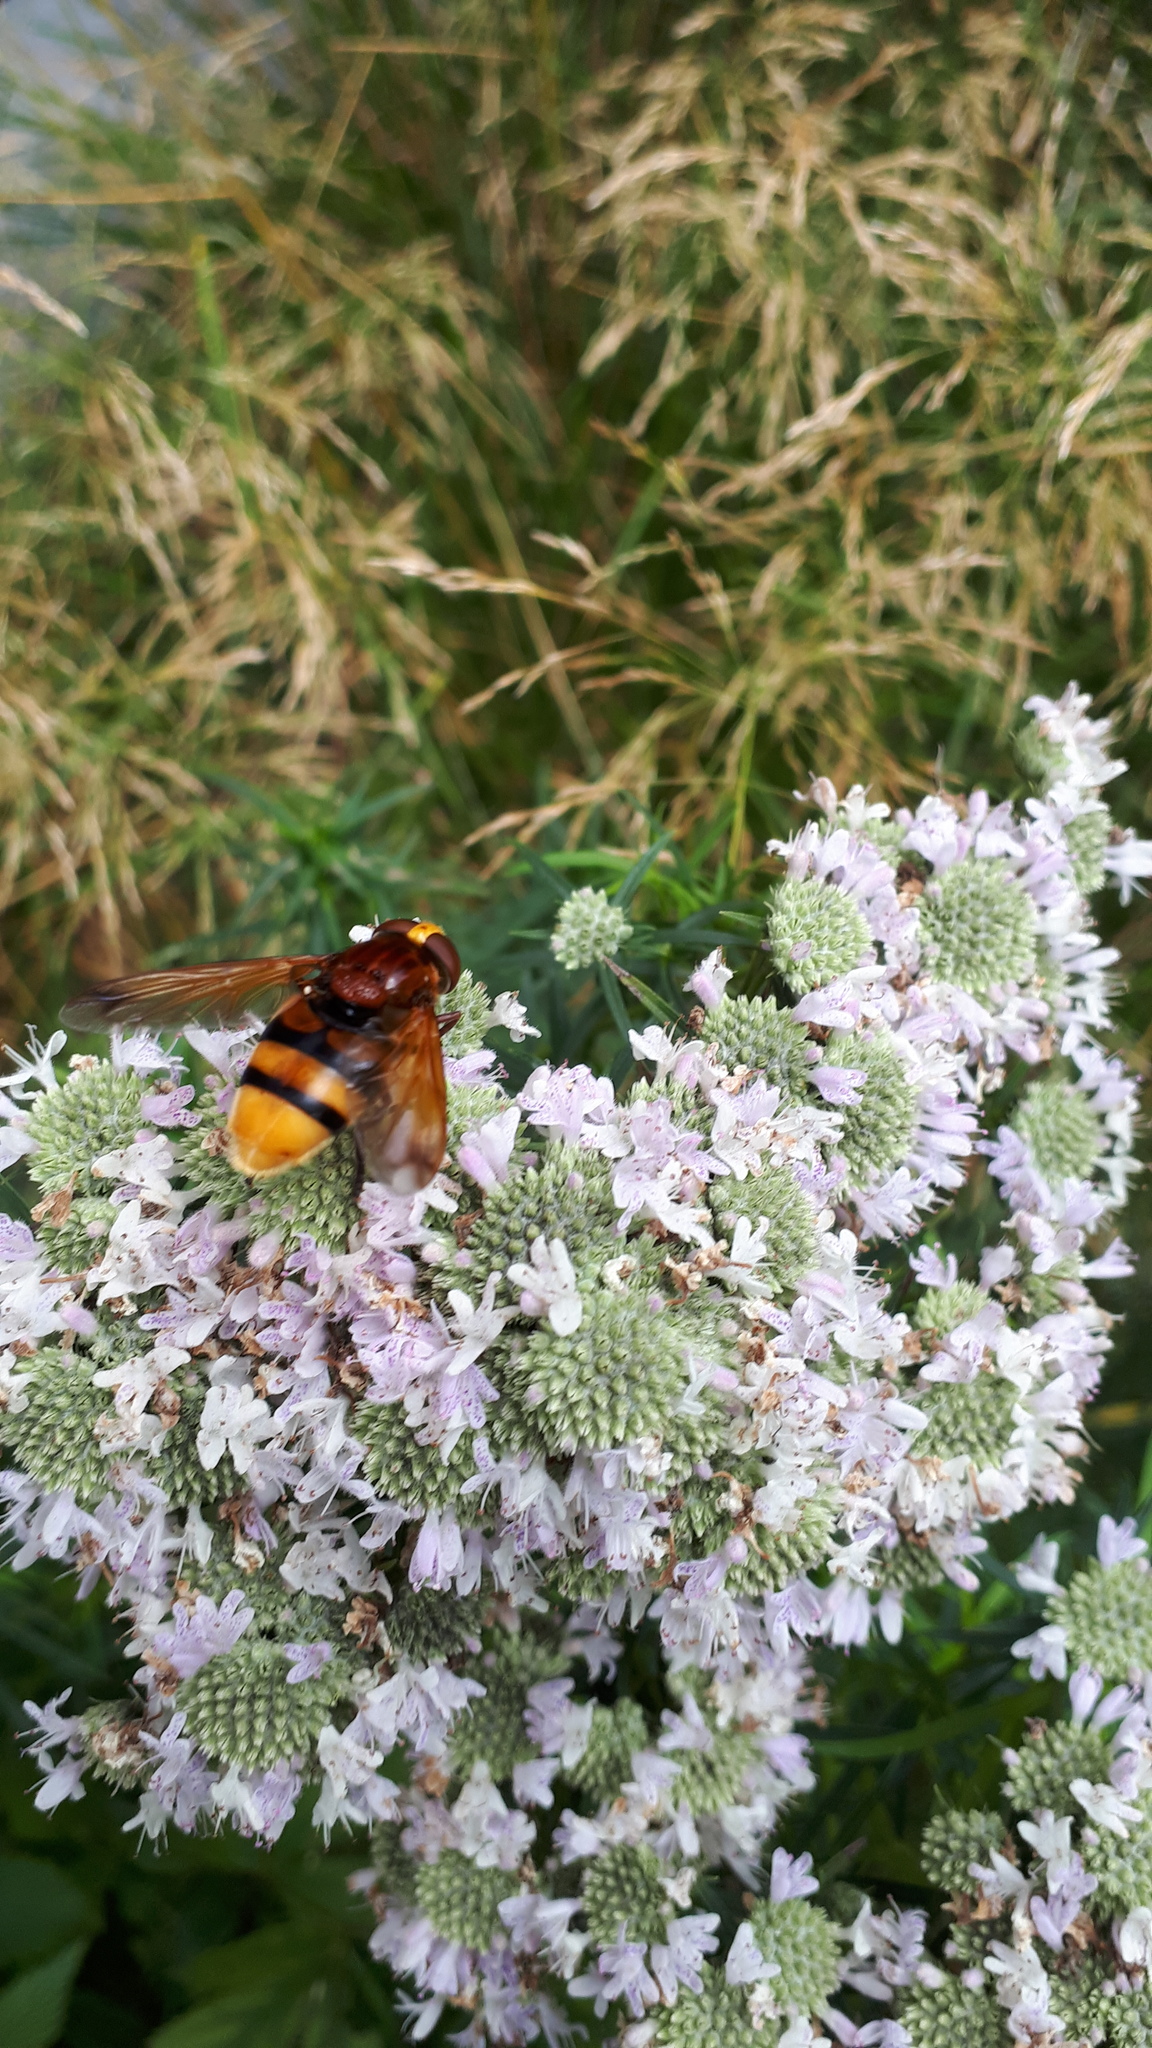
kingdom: Animalia
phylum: Arthropoda
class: Insecta
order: Diptera
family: Syrphidae
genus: Volucella
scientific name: Volucella zonaria
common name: Hornet hoverfly
